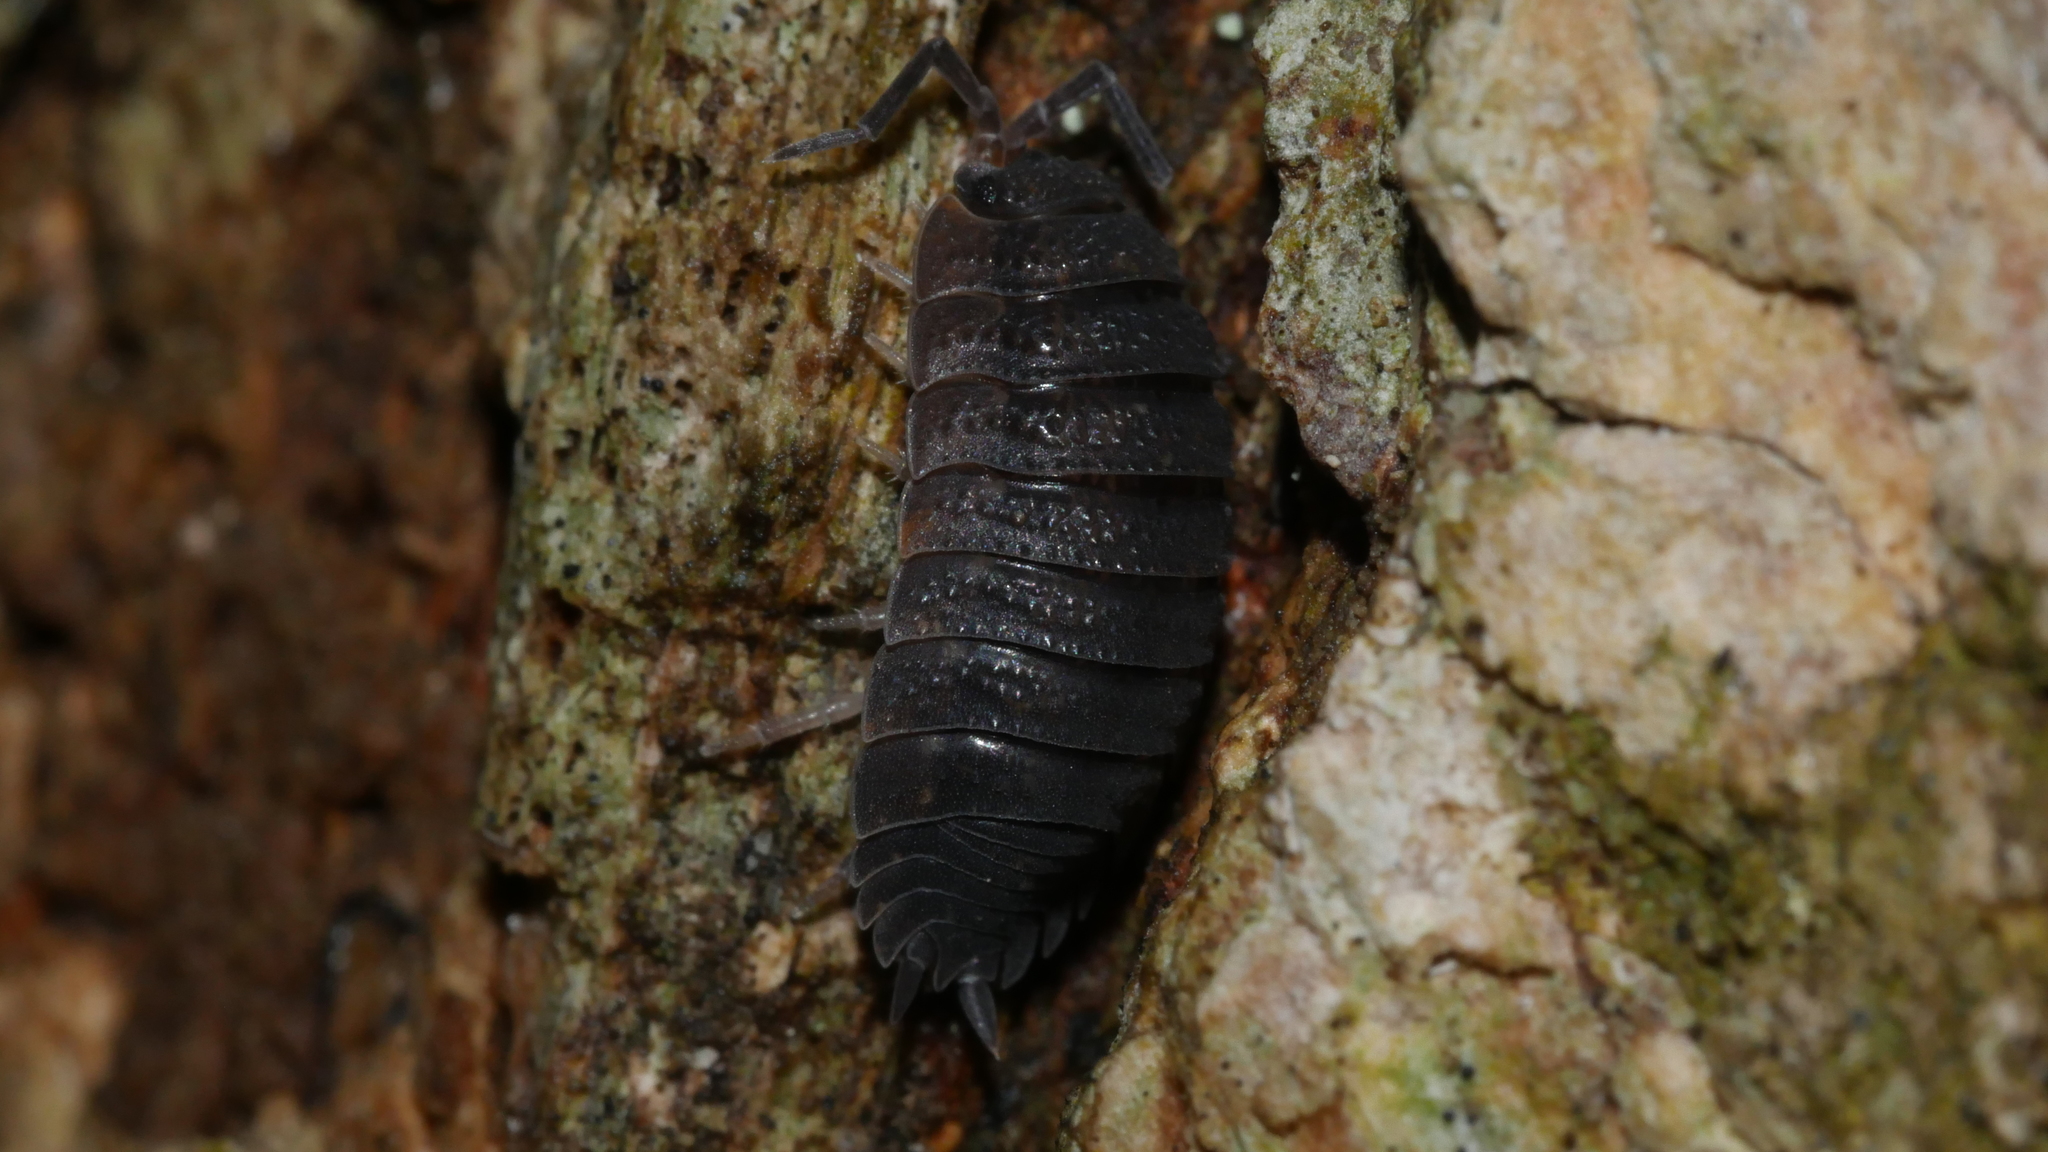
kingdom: Animalia
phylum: Arthropoda
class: Malacostraca
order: Isopoda
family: Porcellionidae
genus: Porcellio
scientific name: Porcellio scaber
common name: Common rough woodlouse
